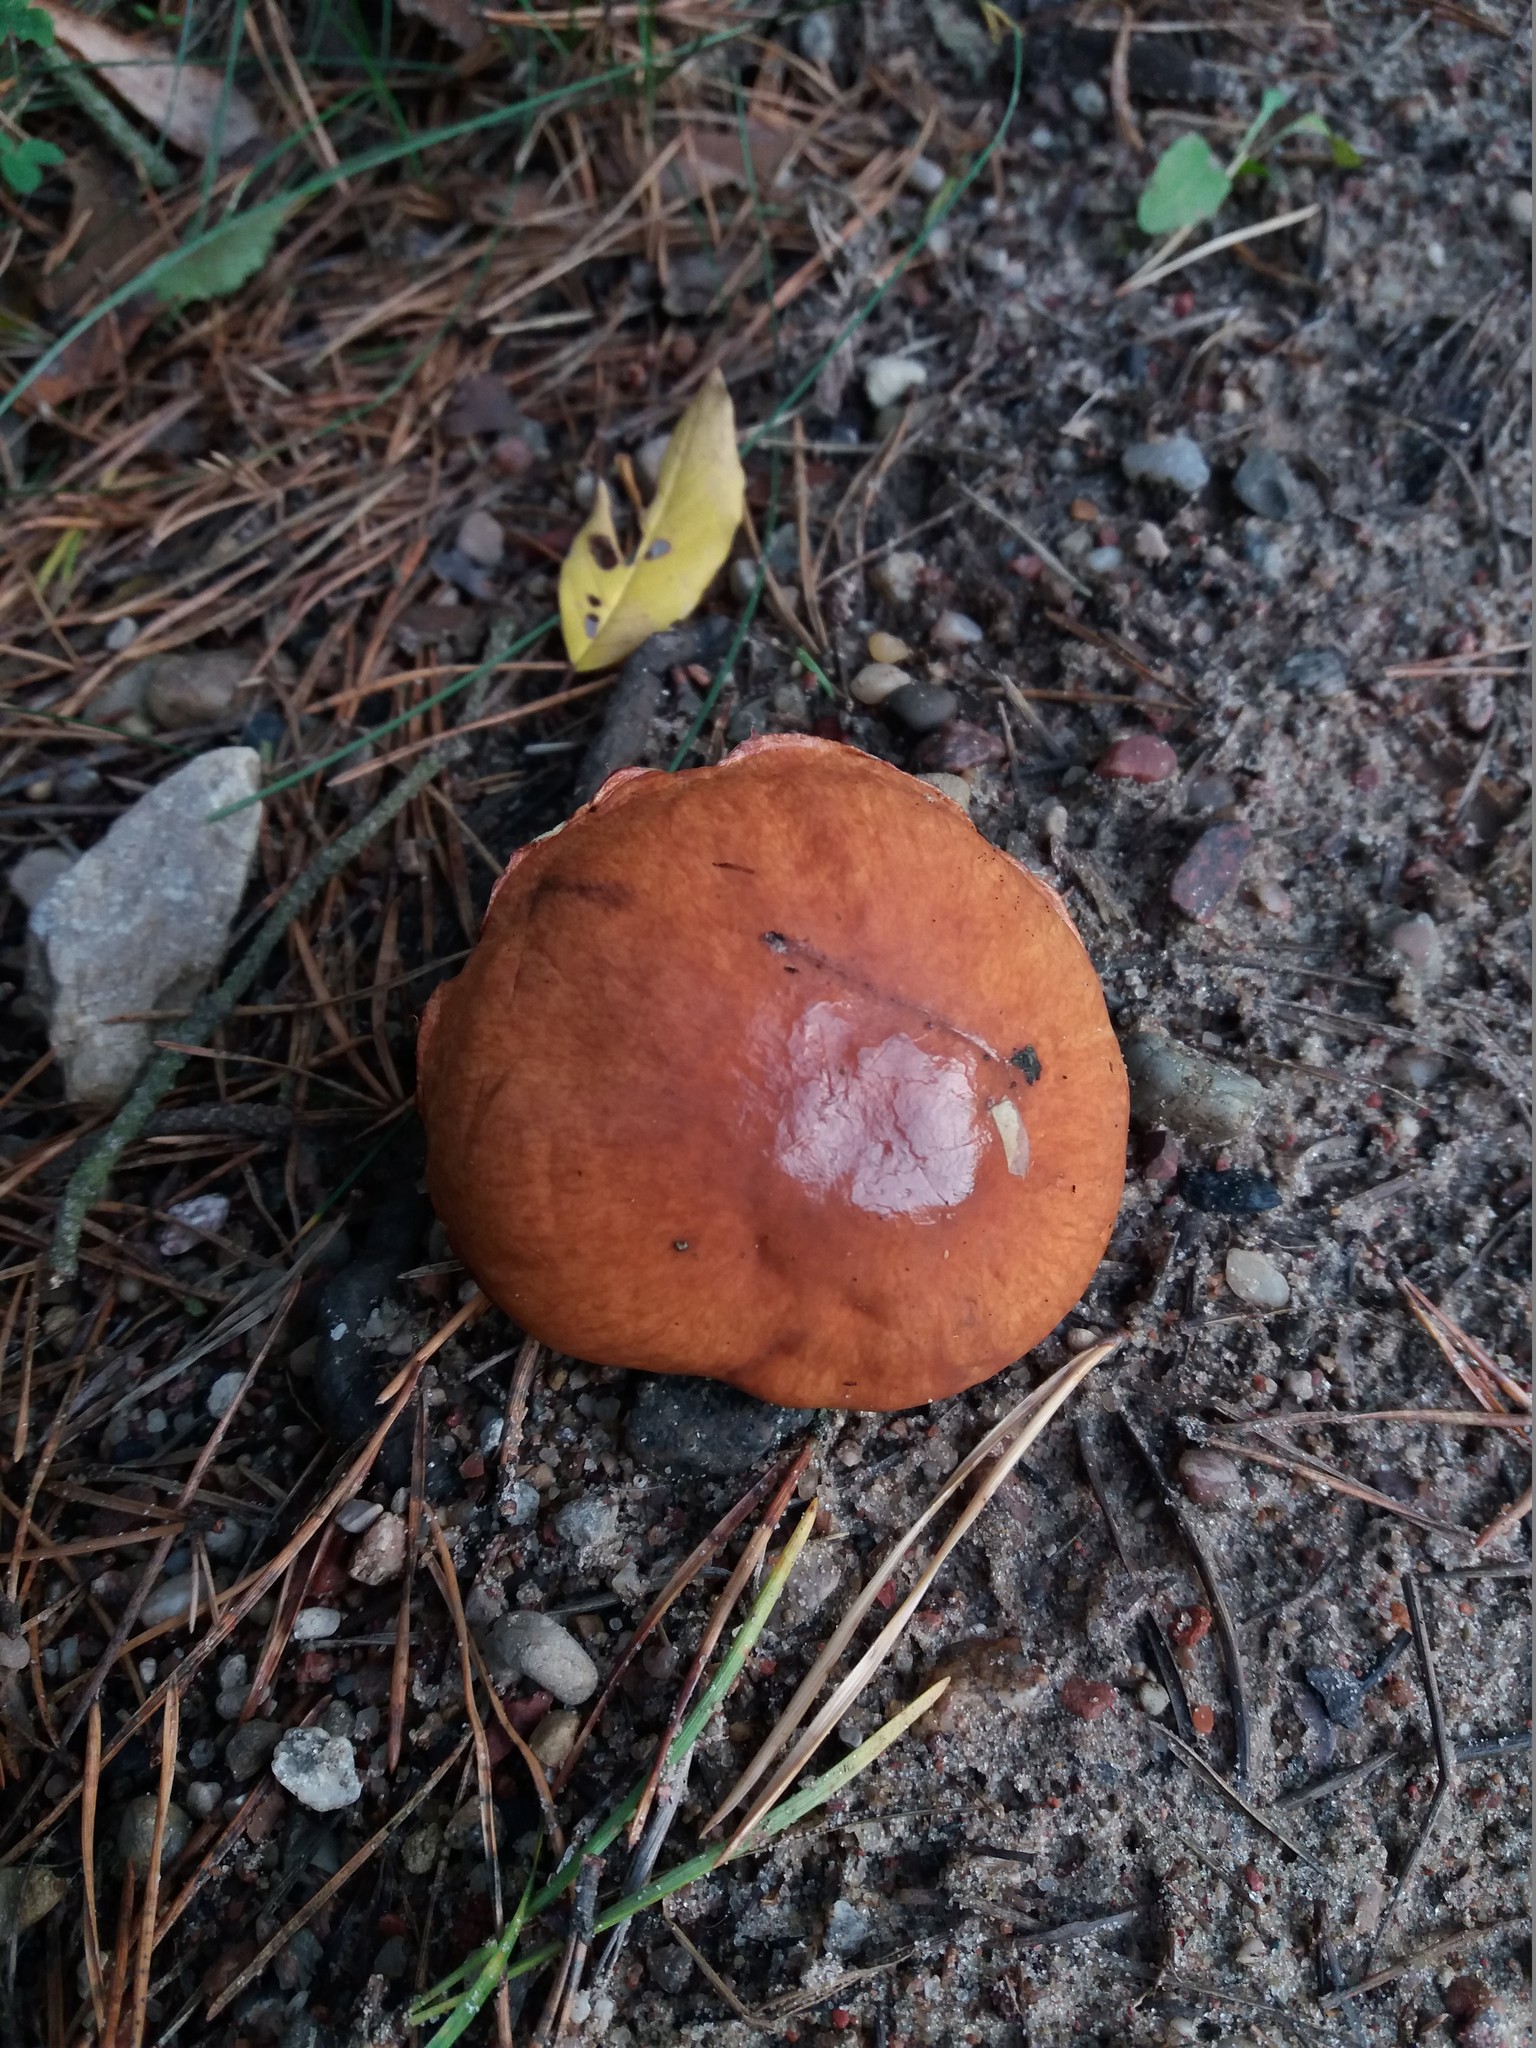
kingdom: Fungi
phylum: Basidiomycota
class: Agaricomycetes
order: Boletales
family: Suillaceae
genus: Suillus
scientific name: Suillus granulatus
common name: Weeping bolete
